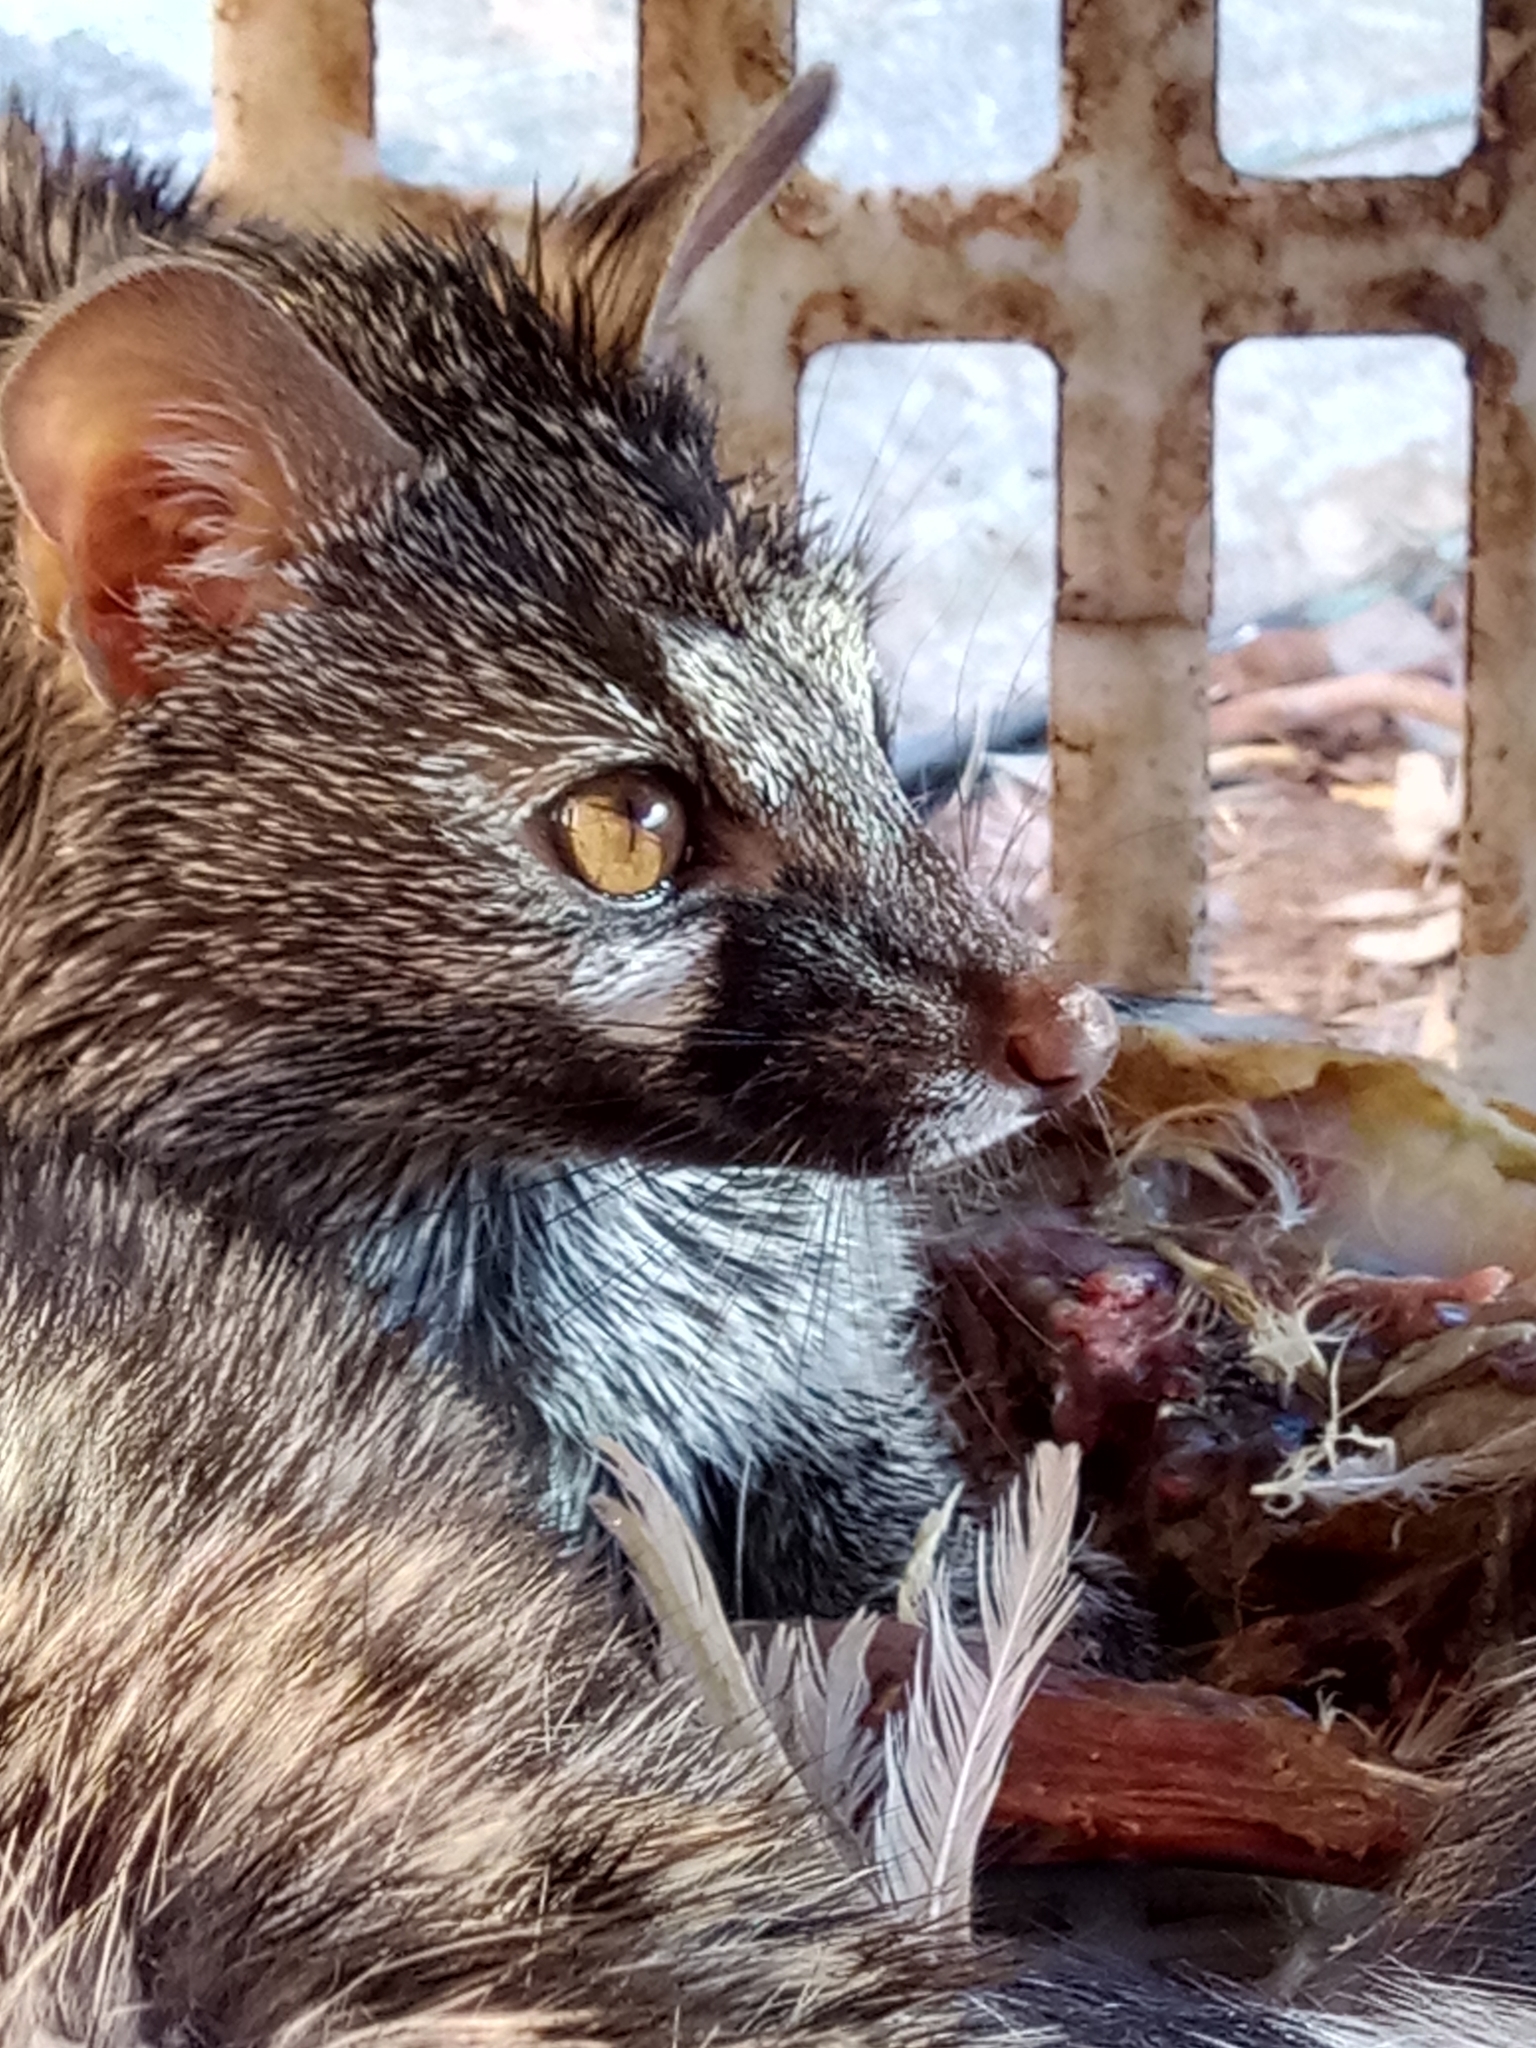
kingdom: Animalia
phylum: Chordata
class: Mammalia
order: Carnivora
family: Viverridae
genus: Genetta
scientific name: Genetta genetta
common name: Common genet
